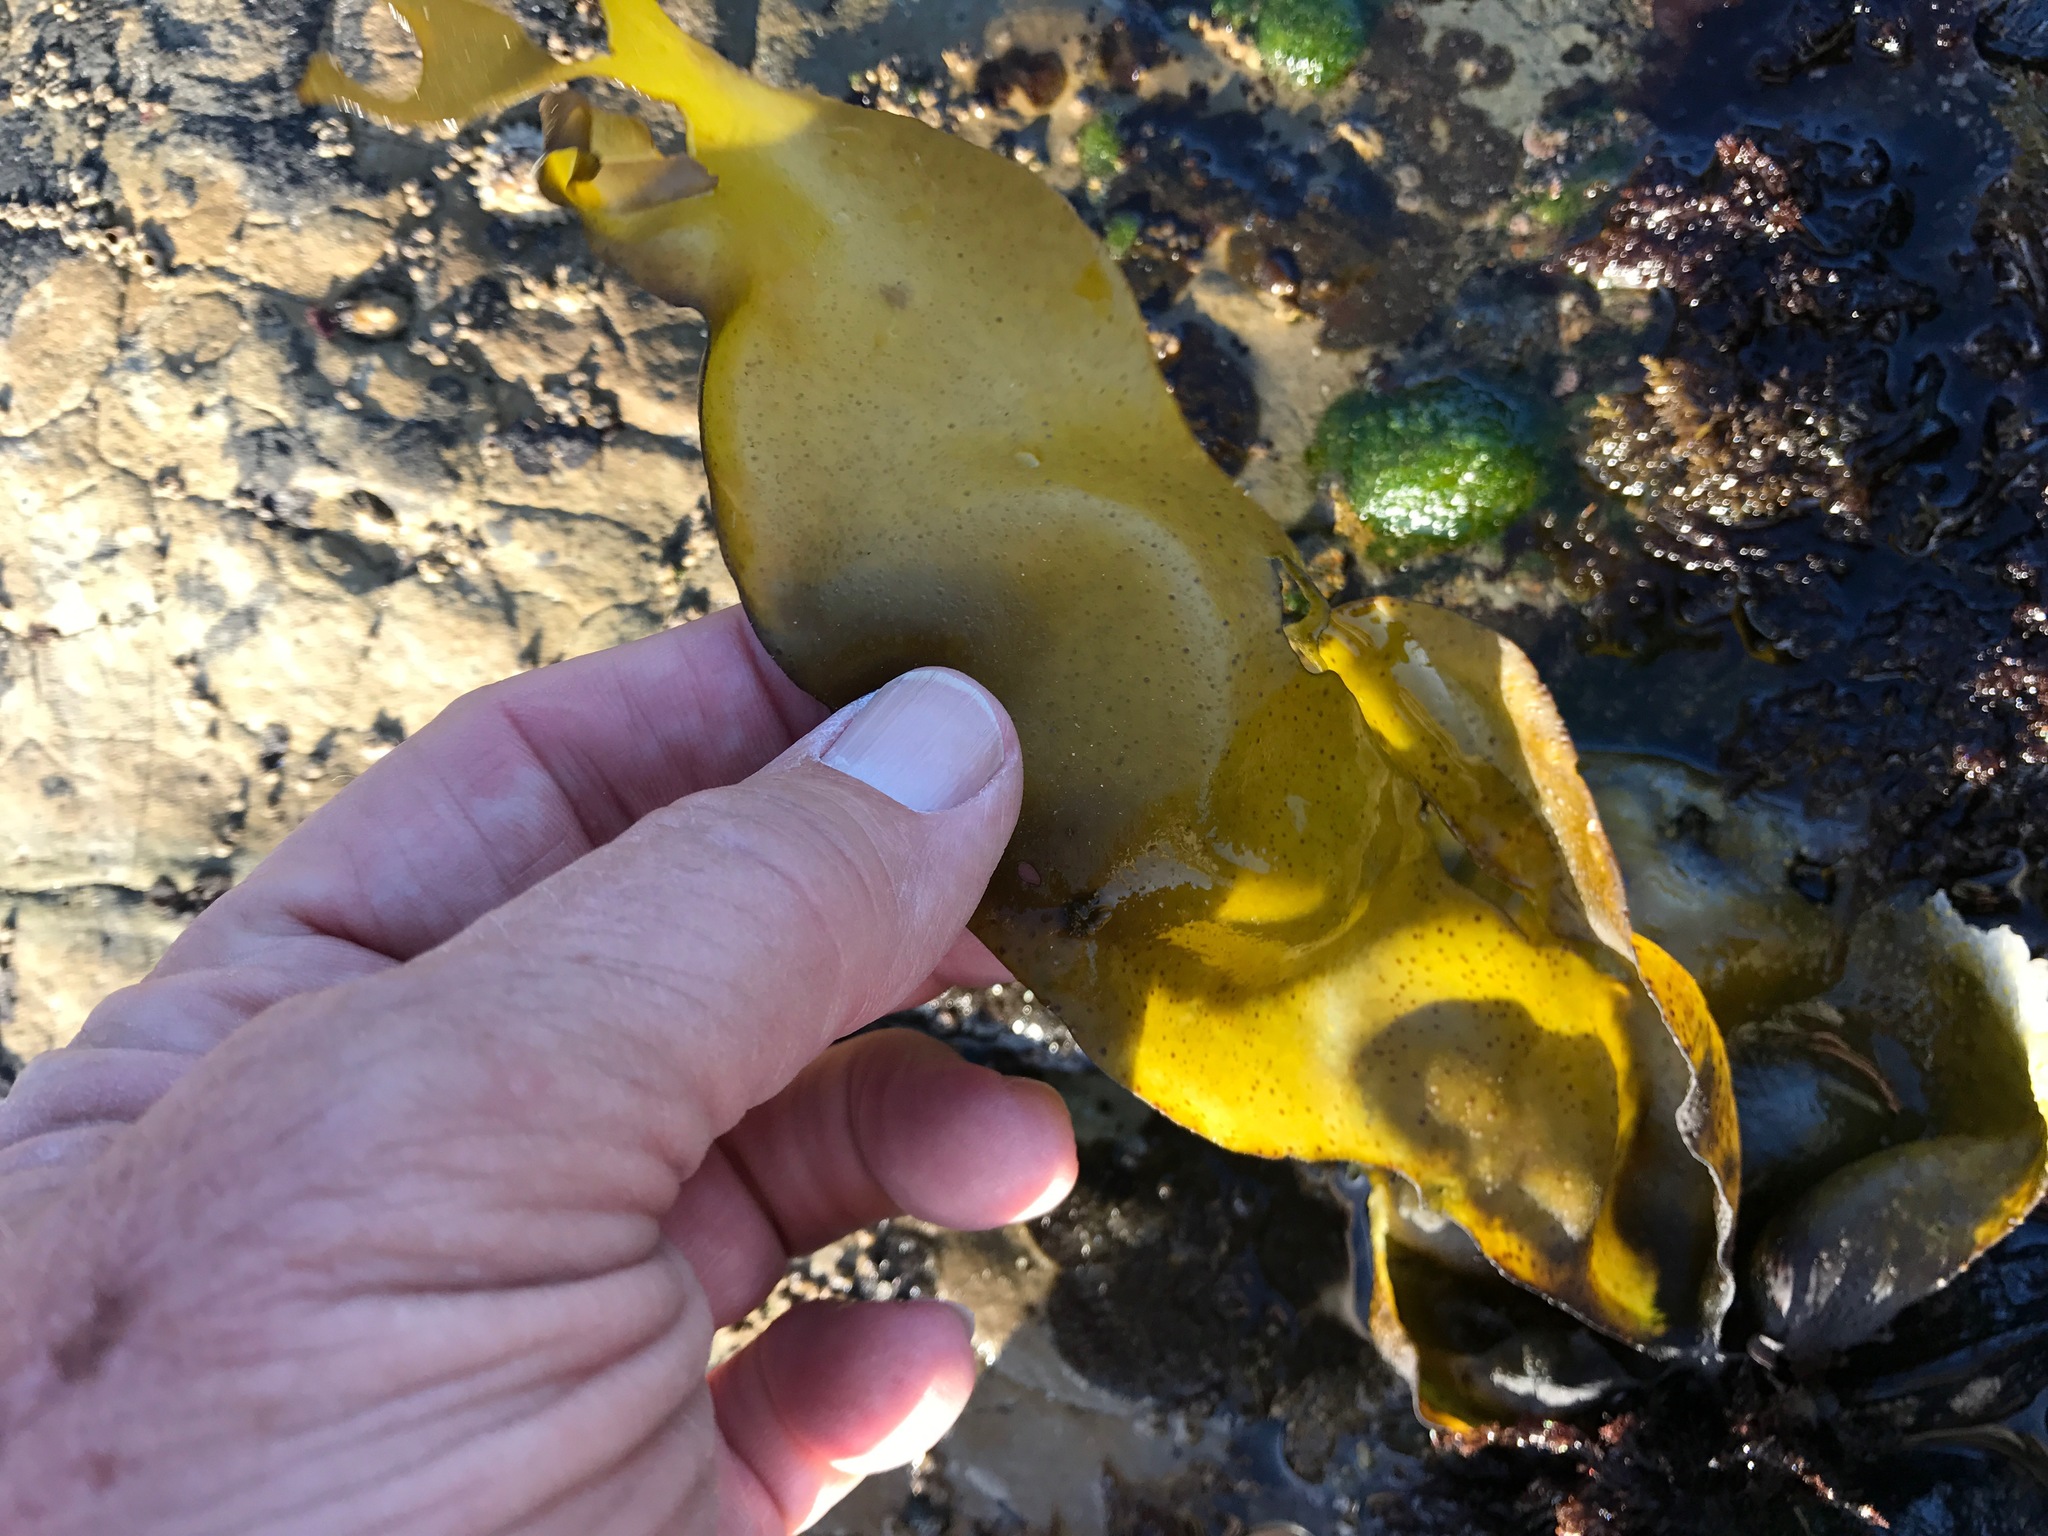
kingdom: Plantae
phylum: Rhodophyta
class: Florideophyceae
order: Gigartinales
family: Gigartinaceae
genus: Mazzaella
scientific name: Mazzaella flaccida
